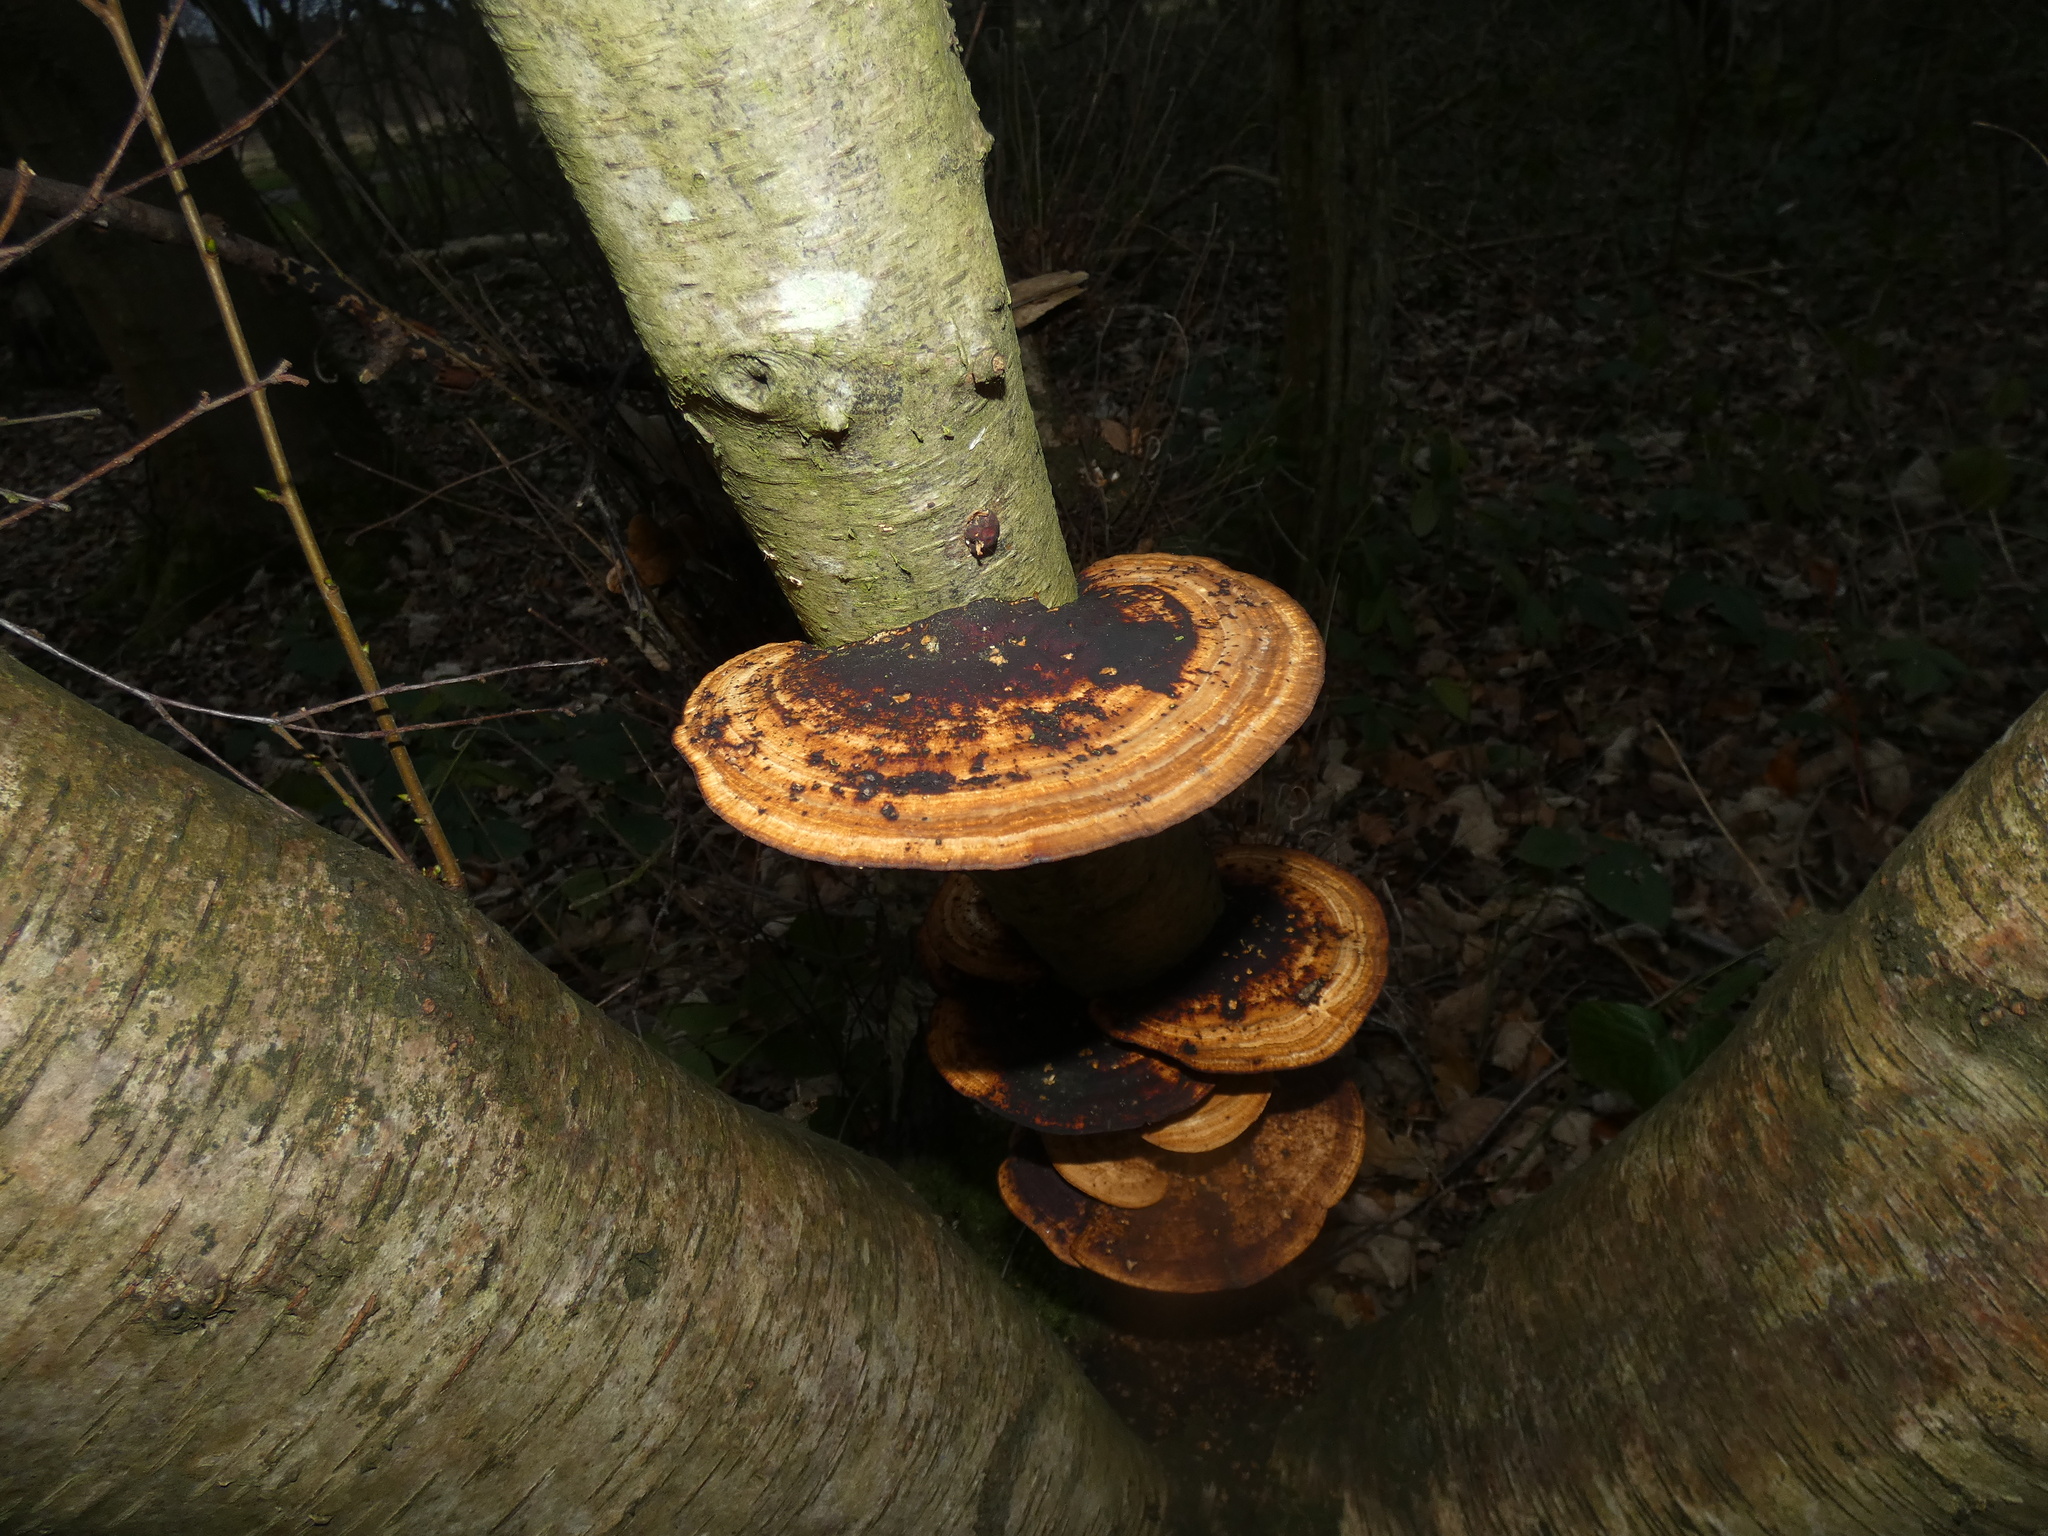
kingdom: Fungi
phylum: Basidiomycota
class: Agaricomycetes
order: Polyporales
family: Polyporaceae
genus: Daedaleopsis
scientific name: Daedaleopsis confragosa
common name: Blushing bracket
